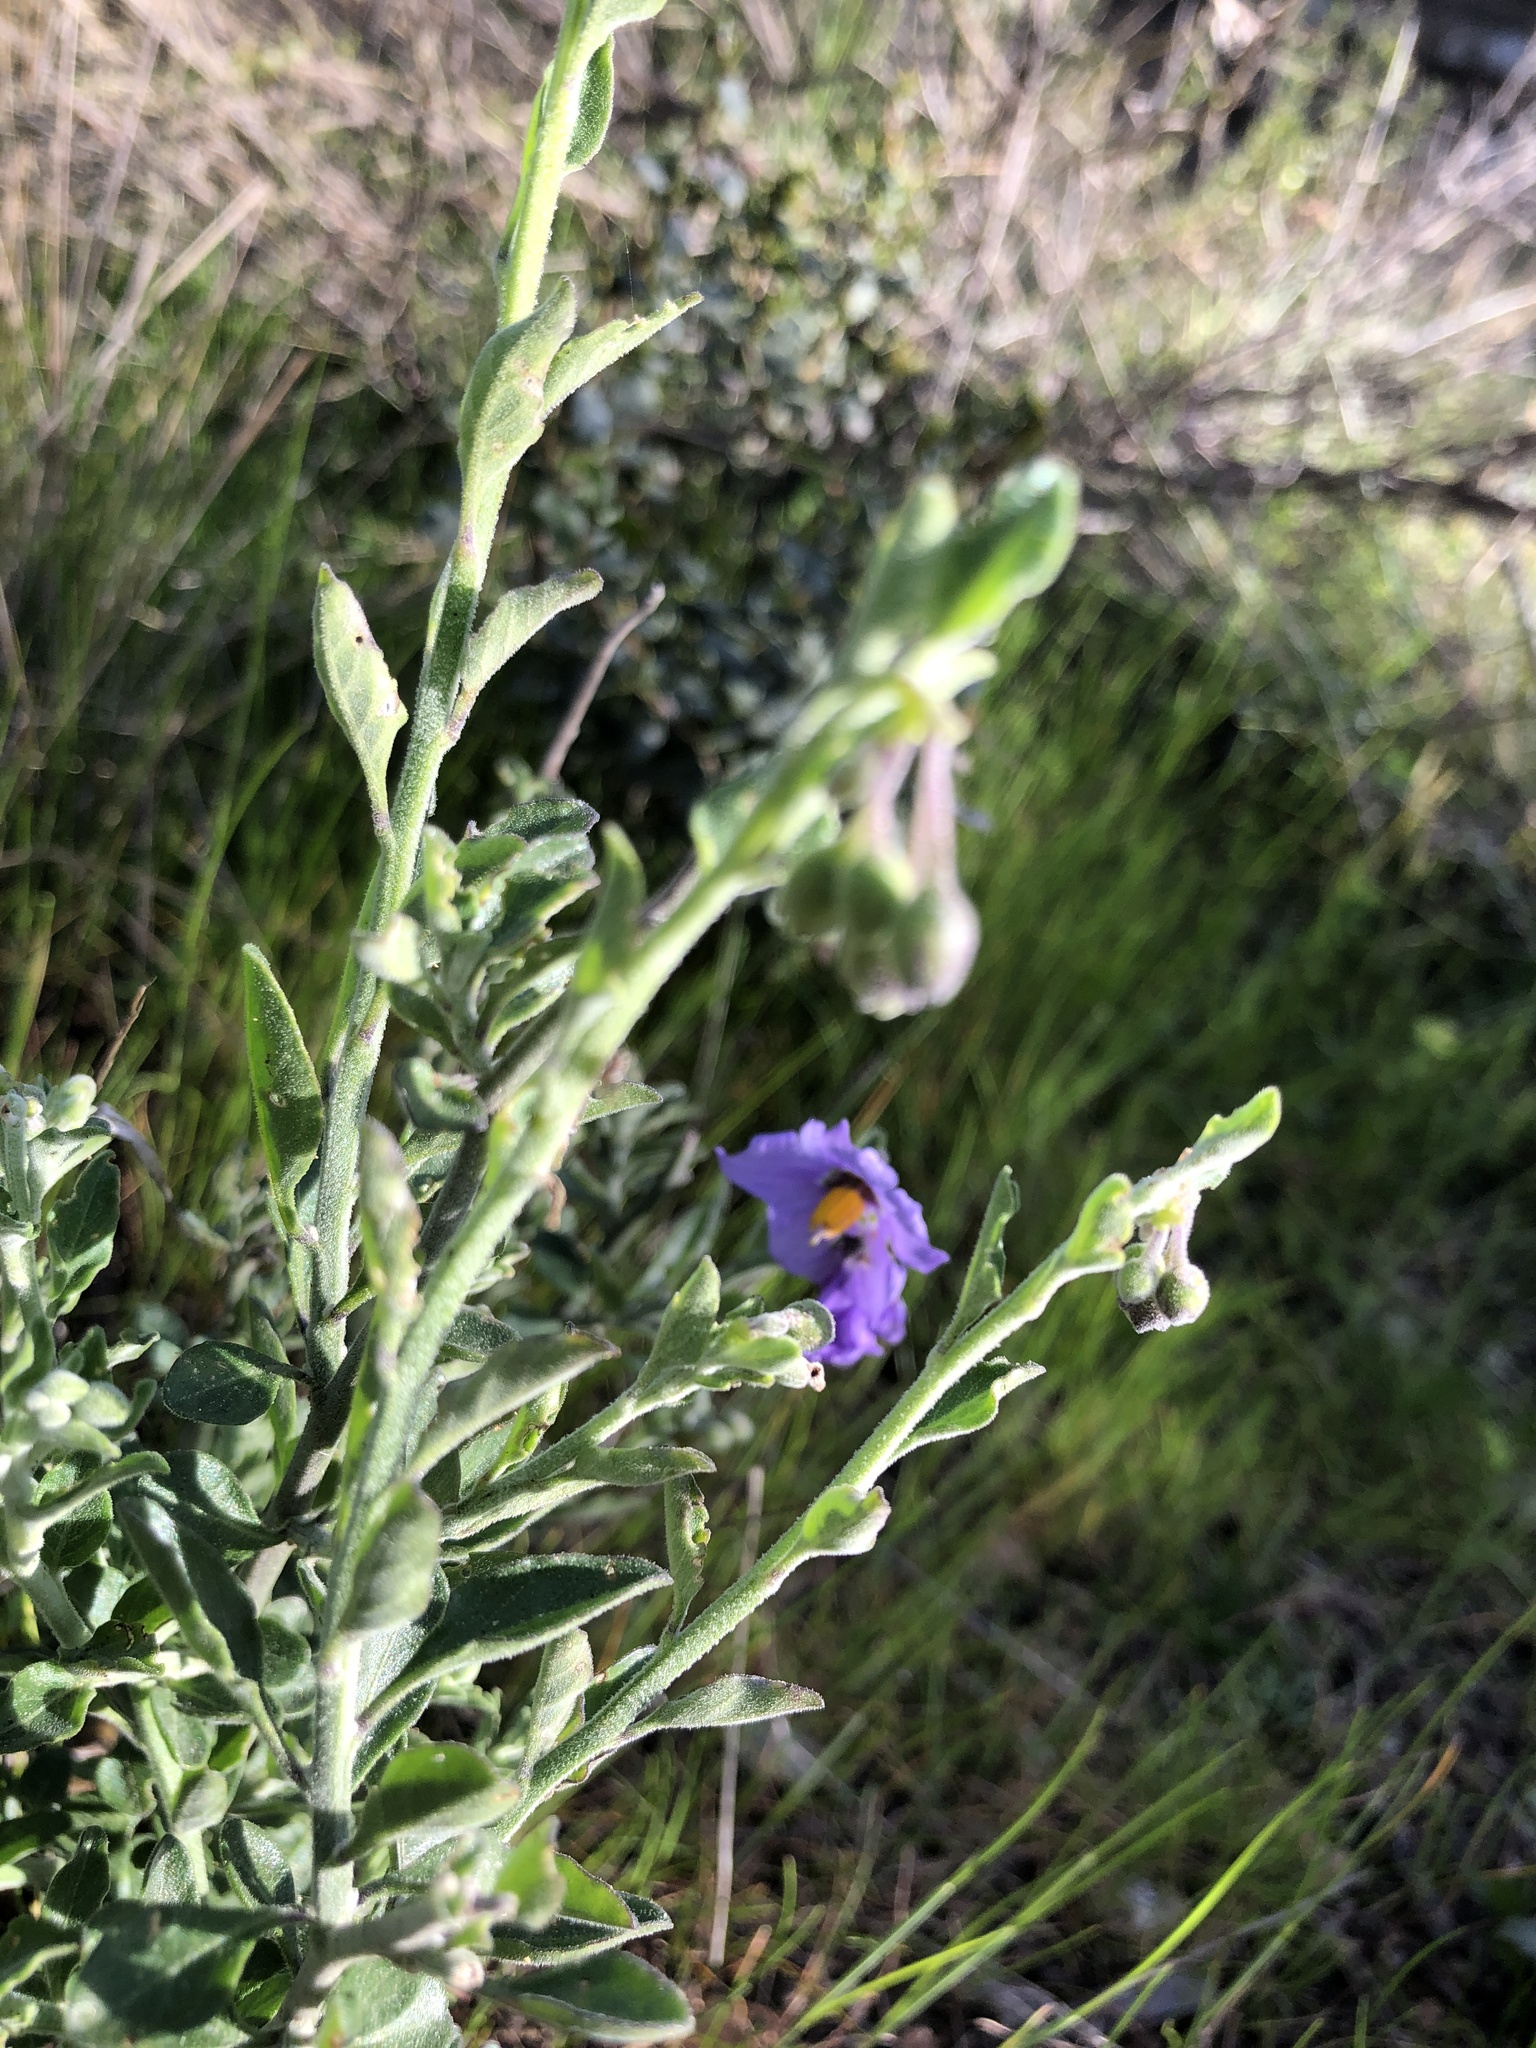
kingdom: Plantae
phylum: Tracheophyta
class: Magnoliopsida
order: Solanales
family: Solanaceae
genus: Solanum
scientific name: Solanum umbelliferum
